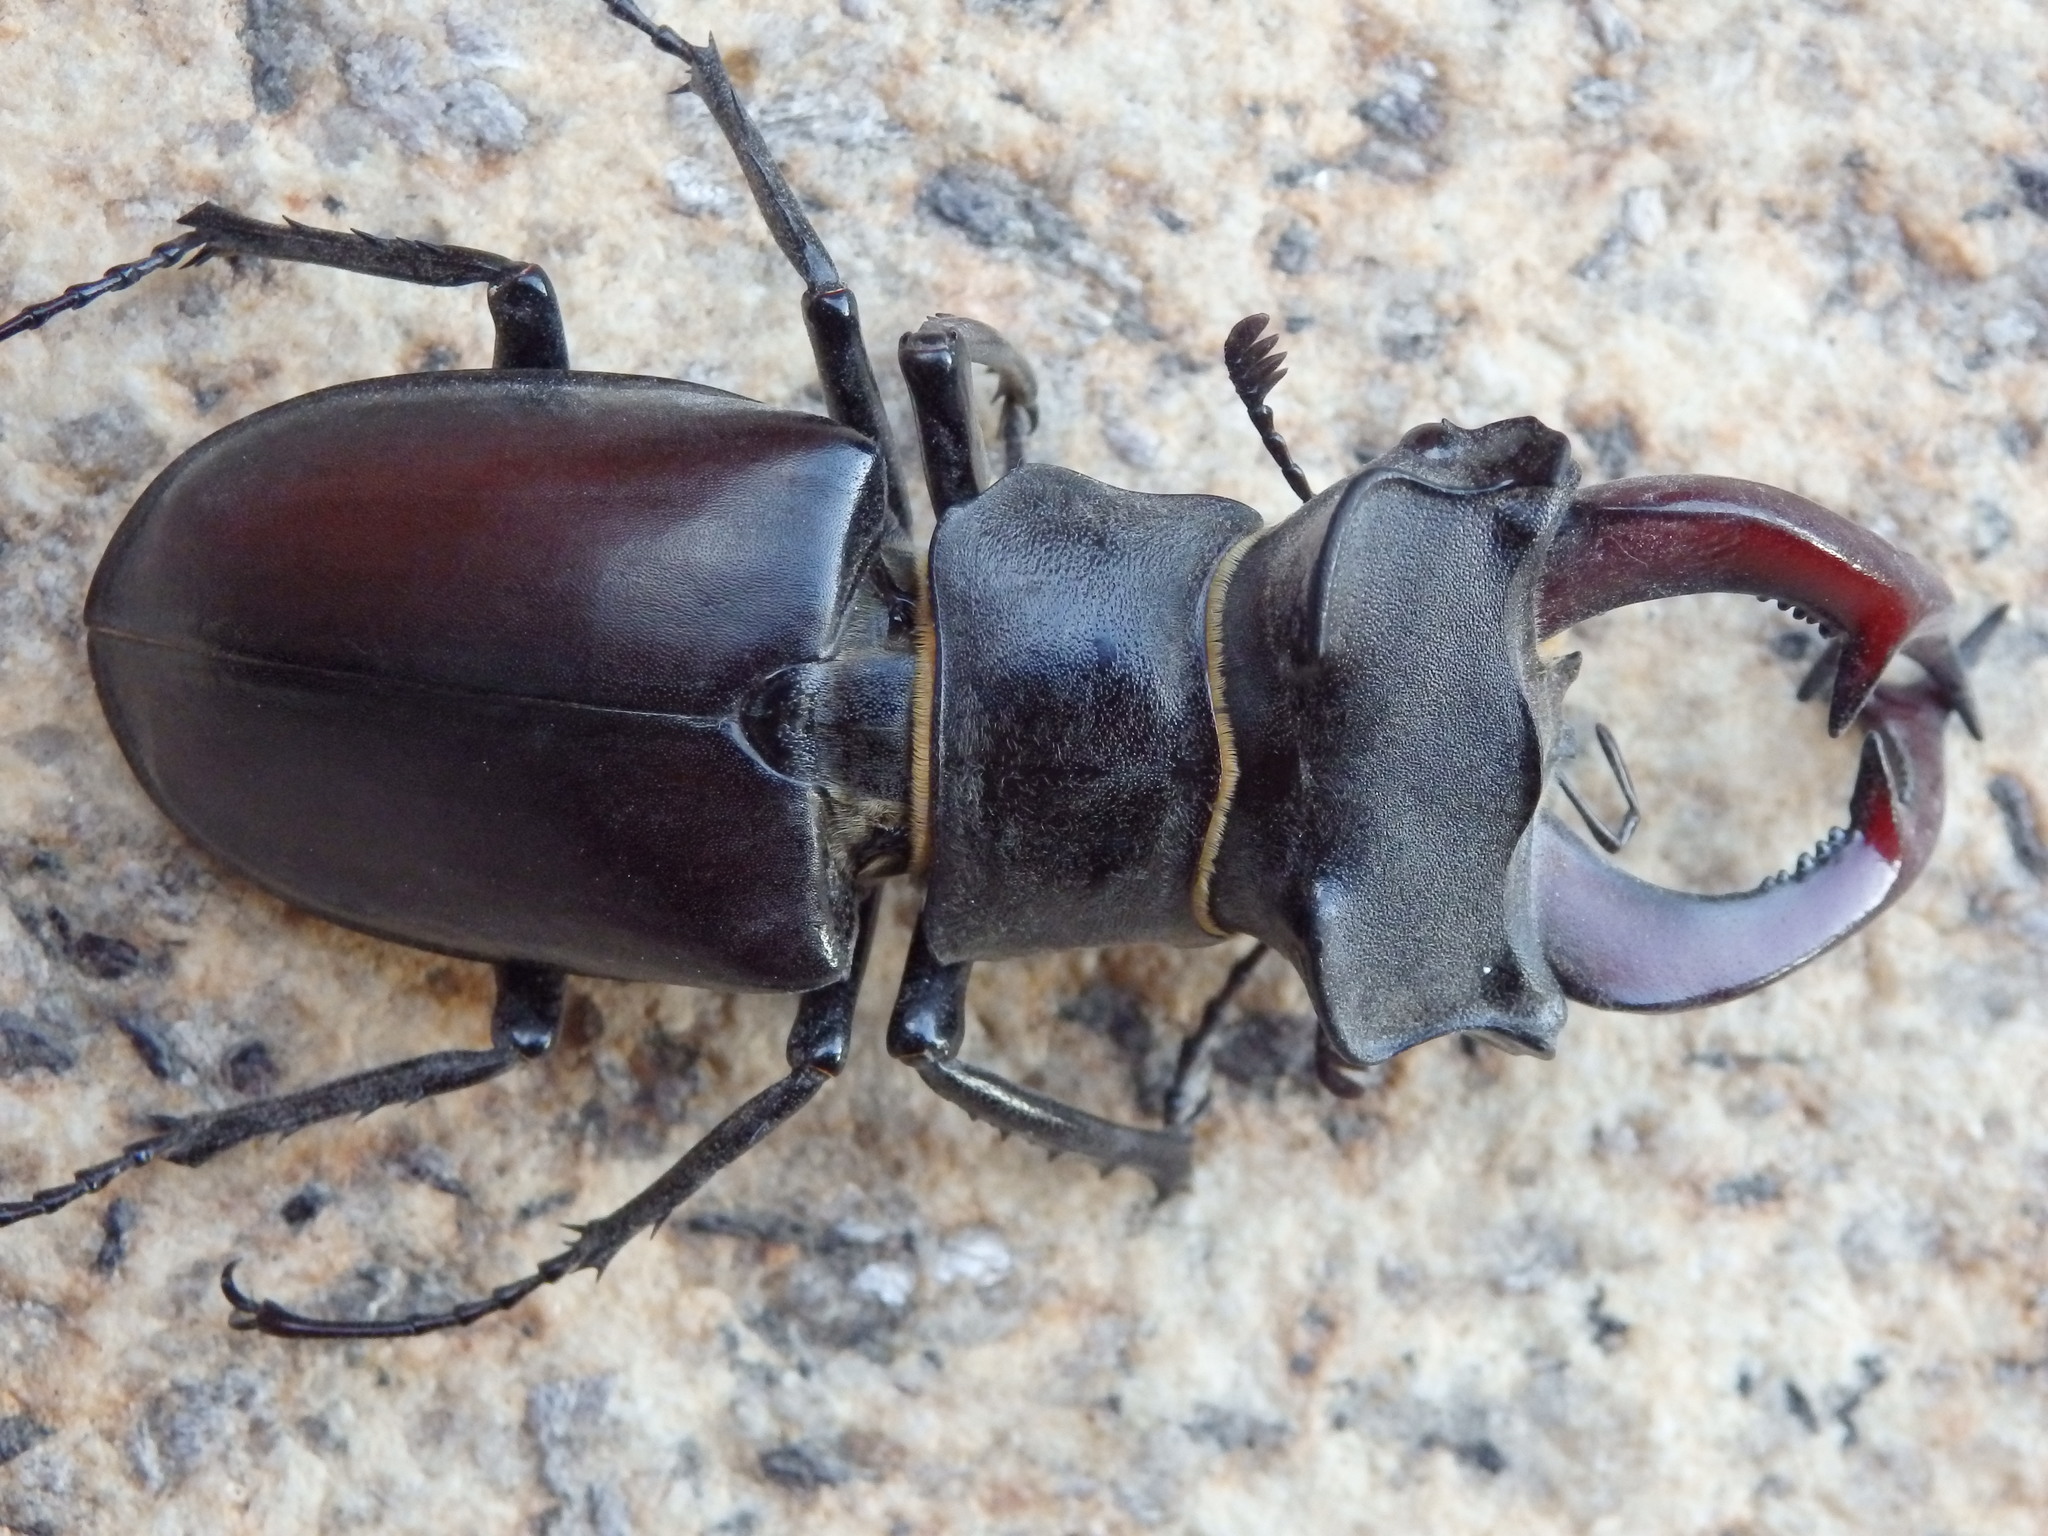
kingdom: Animalia
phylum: Arthropoda
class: Insecta
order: Coleoptera
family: Lucanidae
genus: Lucanus
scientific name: Lucanus cervus
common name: Stag beetle
